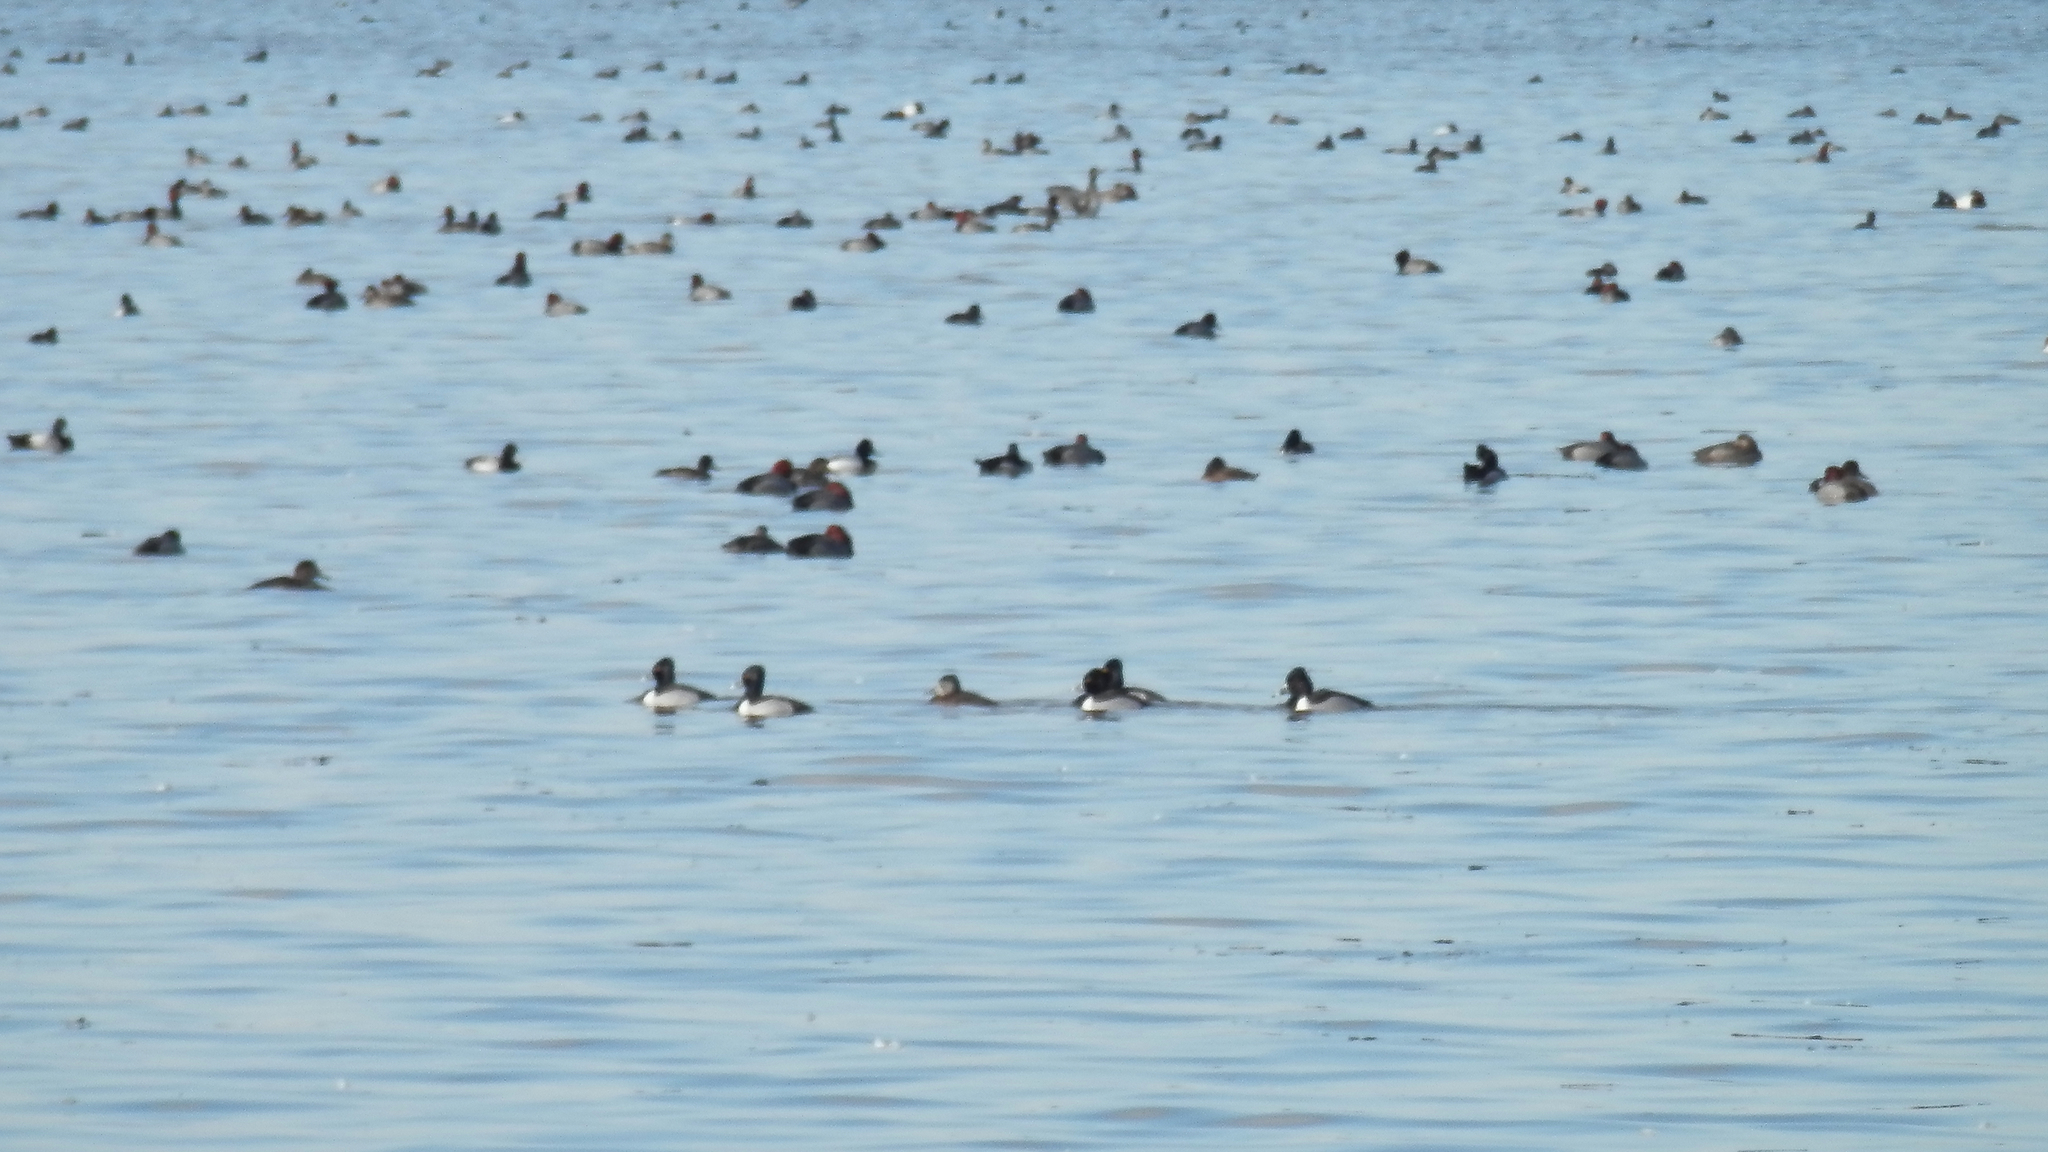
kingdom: Animalia
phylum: Chordata
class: Aves
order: Anseriformes
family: Anatidae
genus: Aythya
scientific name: Aythya americana
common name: Redhead
